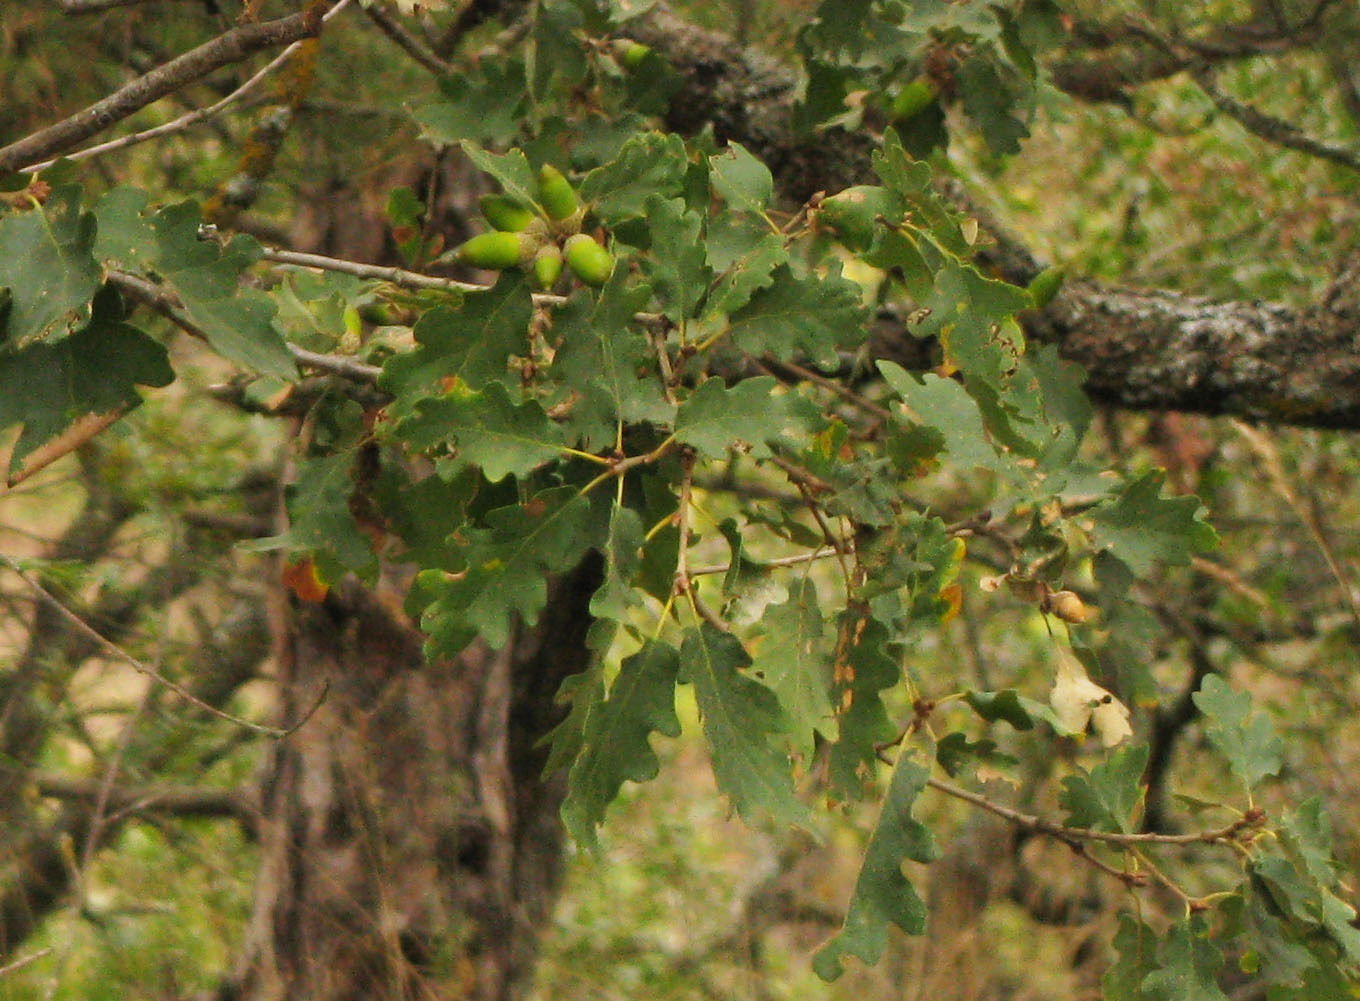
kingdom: Plantae
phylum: Tracheophyta
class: Magnoliopsida
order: Fagales
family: Fagaceae
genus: Quercus
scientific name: Quercus pubescens
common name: Downy oak
